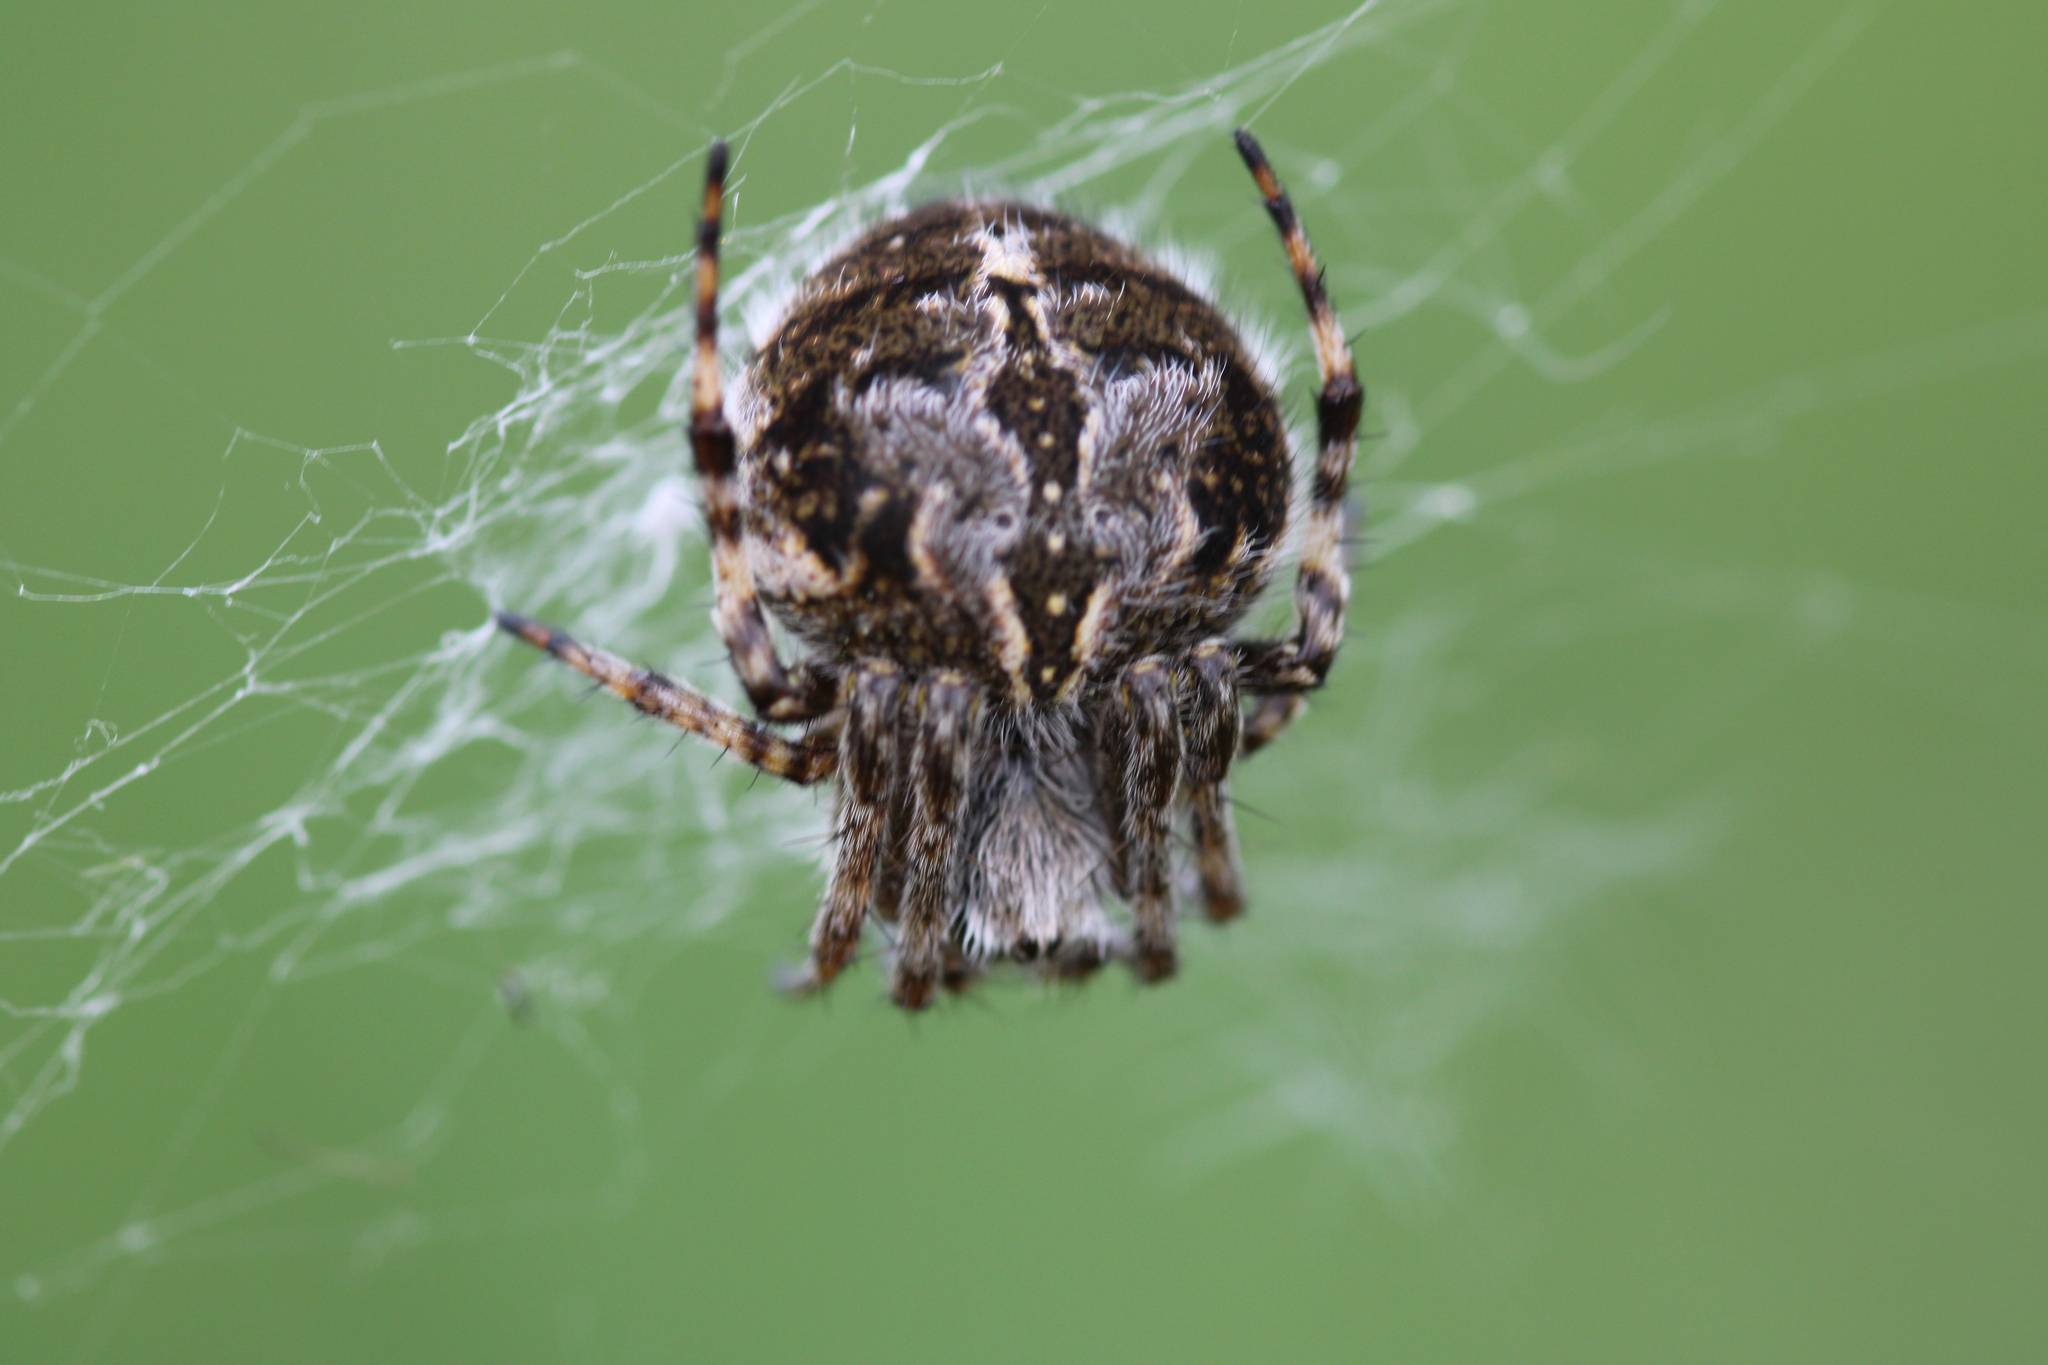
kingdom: Animalia
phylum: Arthropoda
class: Arachnida
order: Araneae
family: Araneidae
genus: Agalenatea
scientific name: Agalenatea redii
